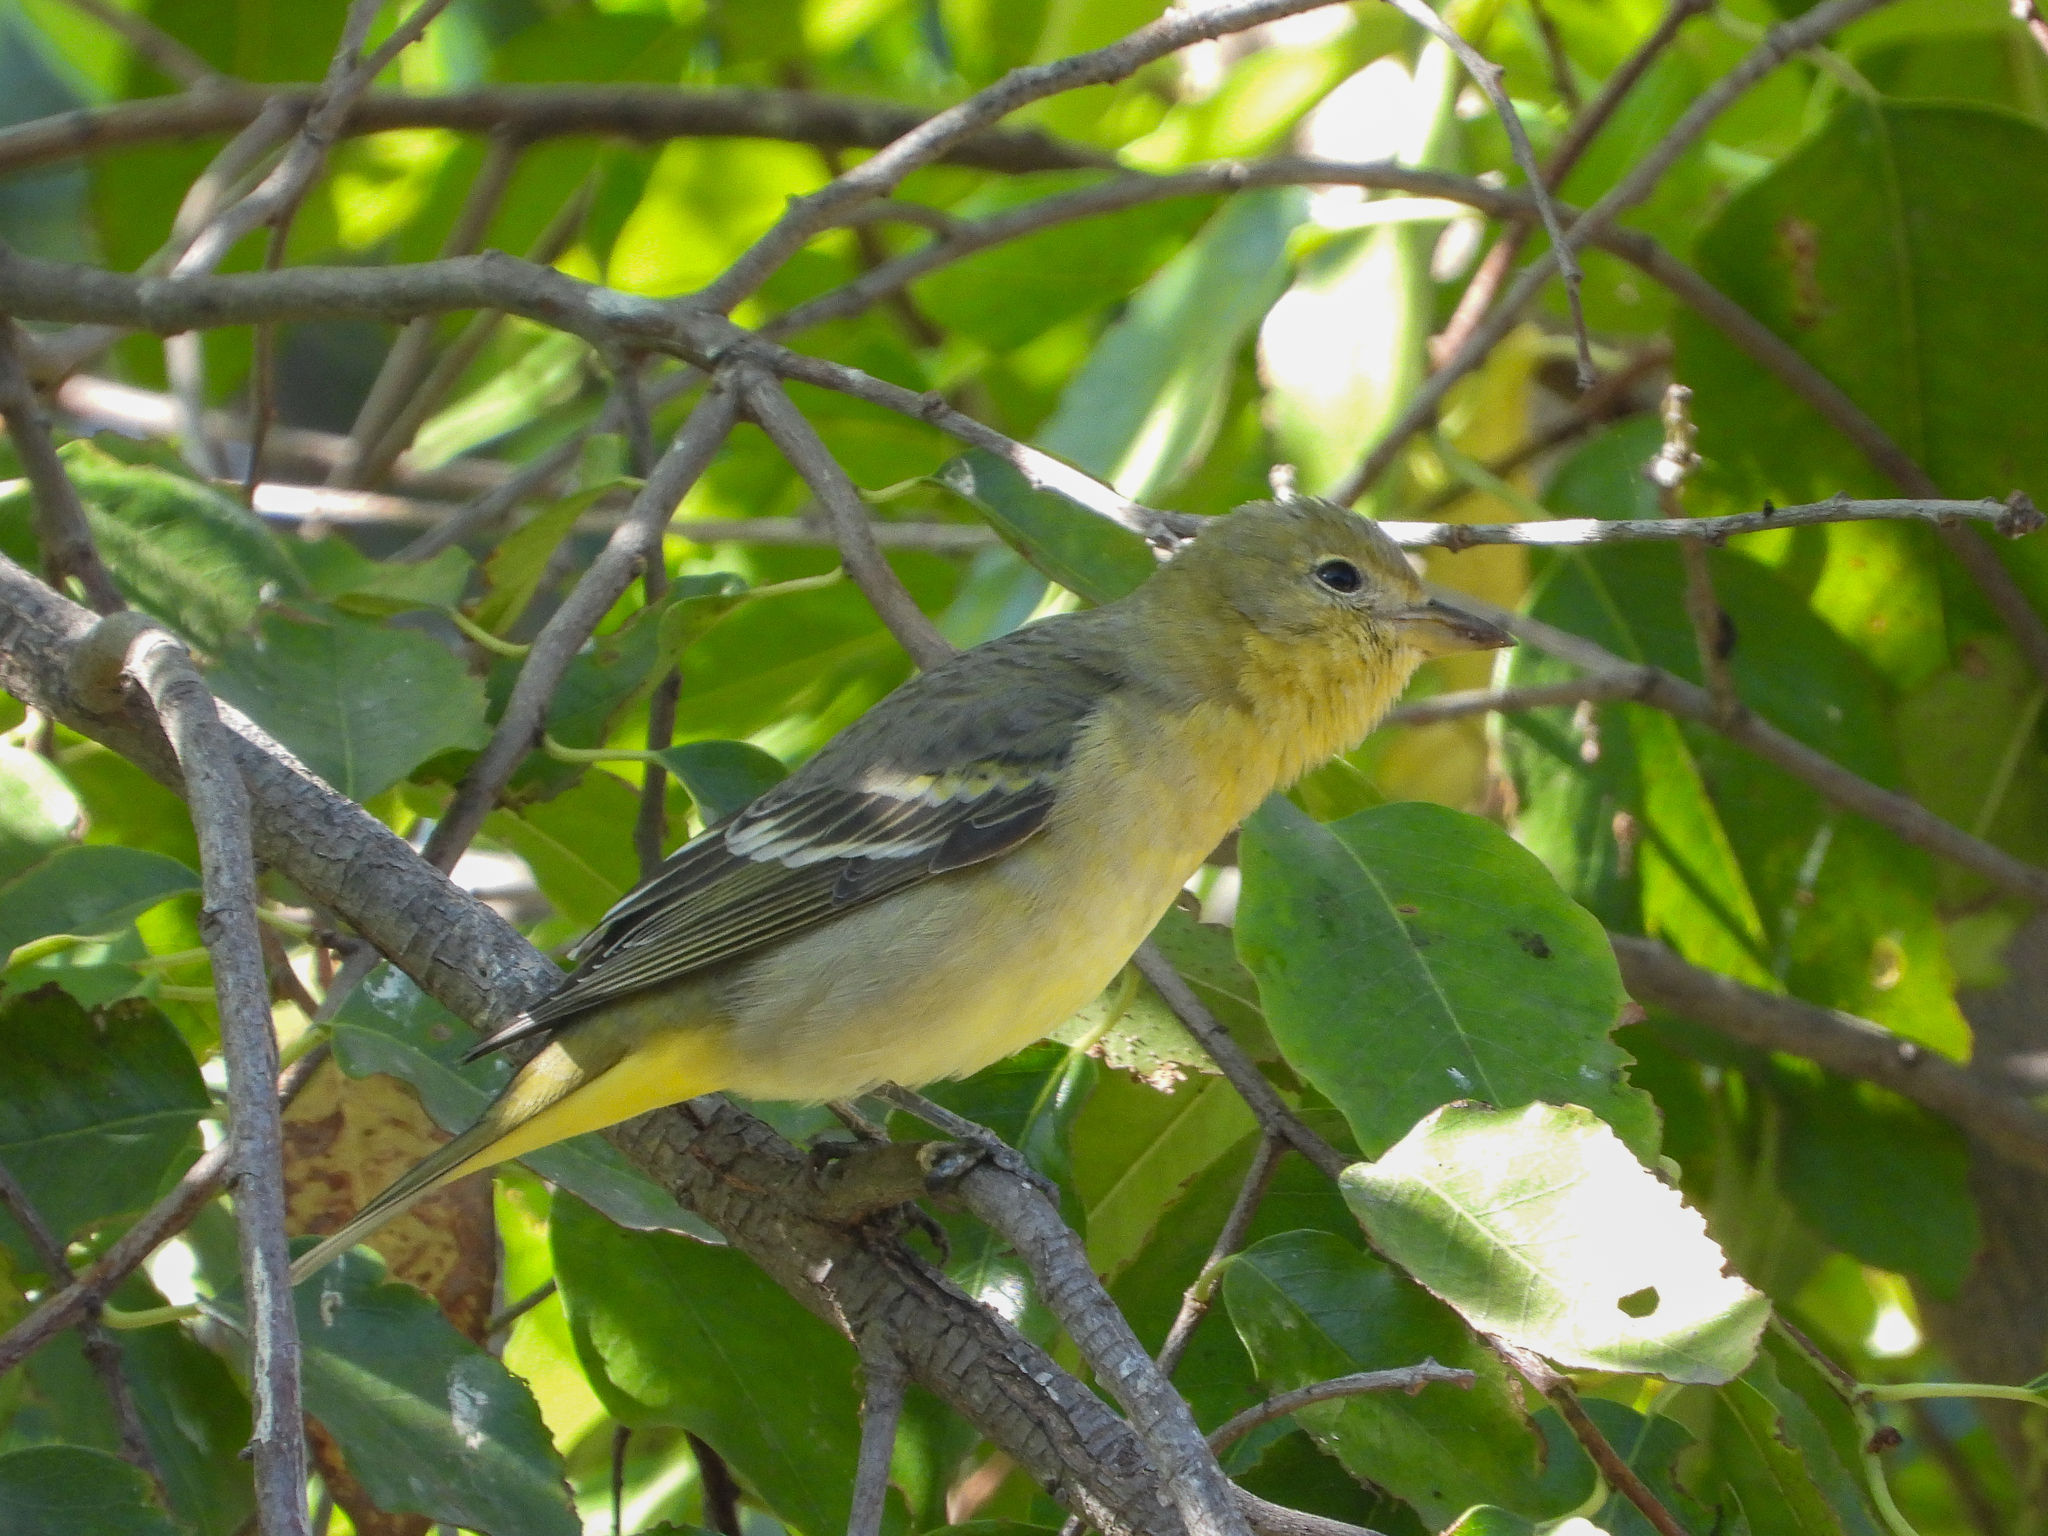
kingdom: Animalia
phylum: Chordata
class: Aves
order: Passeriformes
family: Cardinalidae
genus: Piranga
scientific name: Piranga ludoviciana
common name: Western tanager
